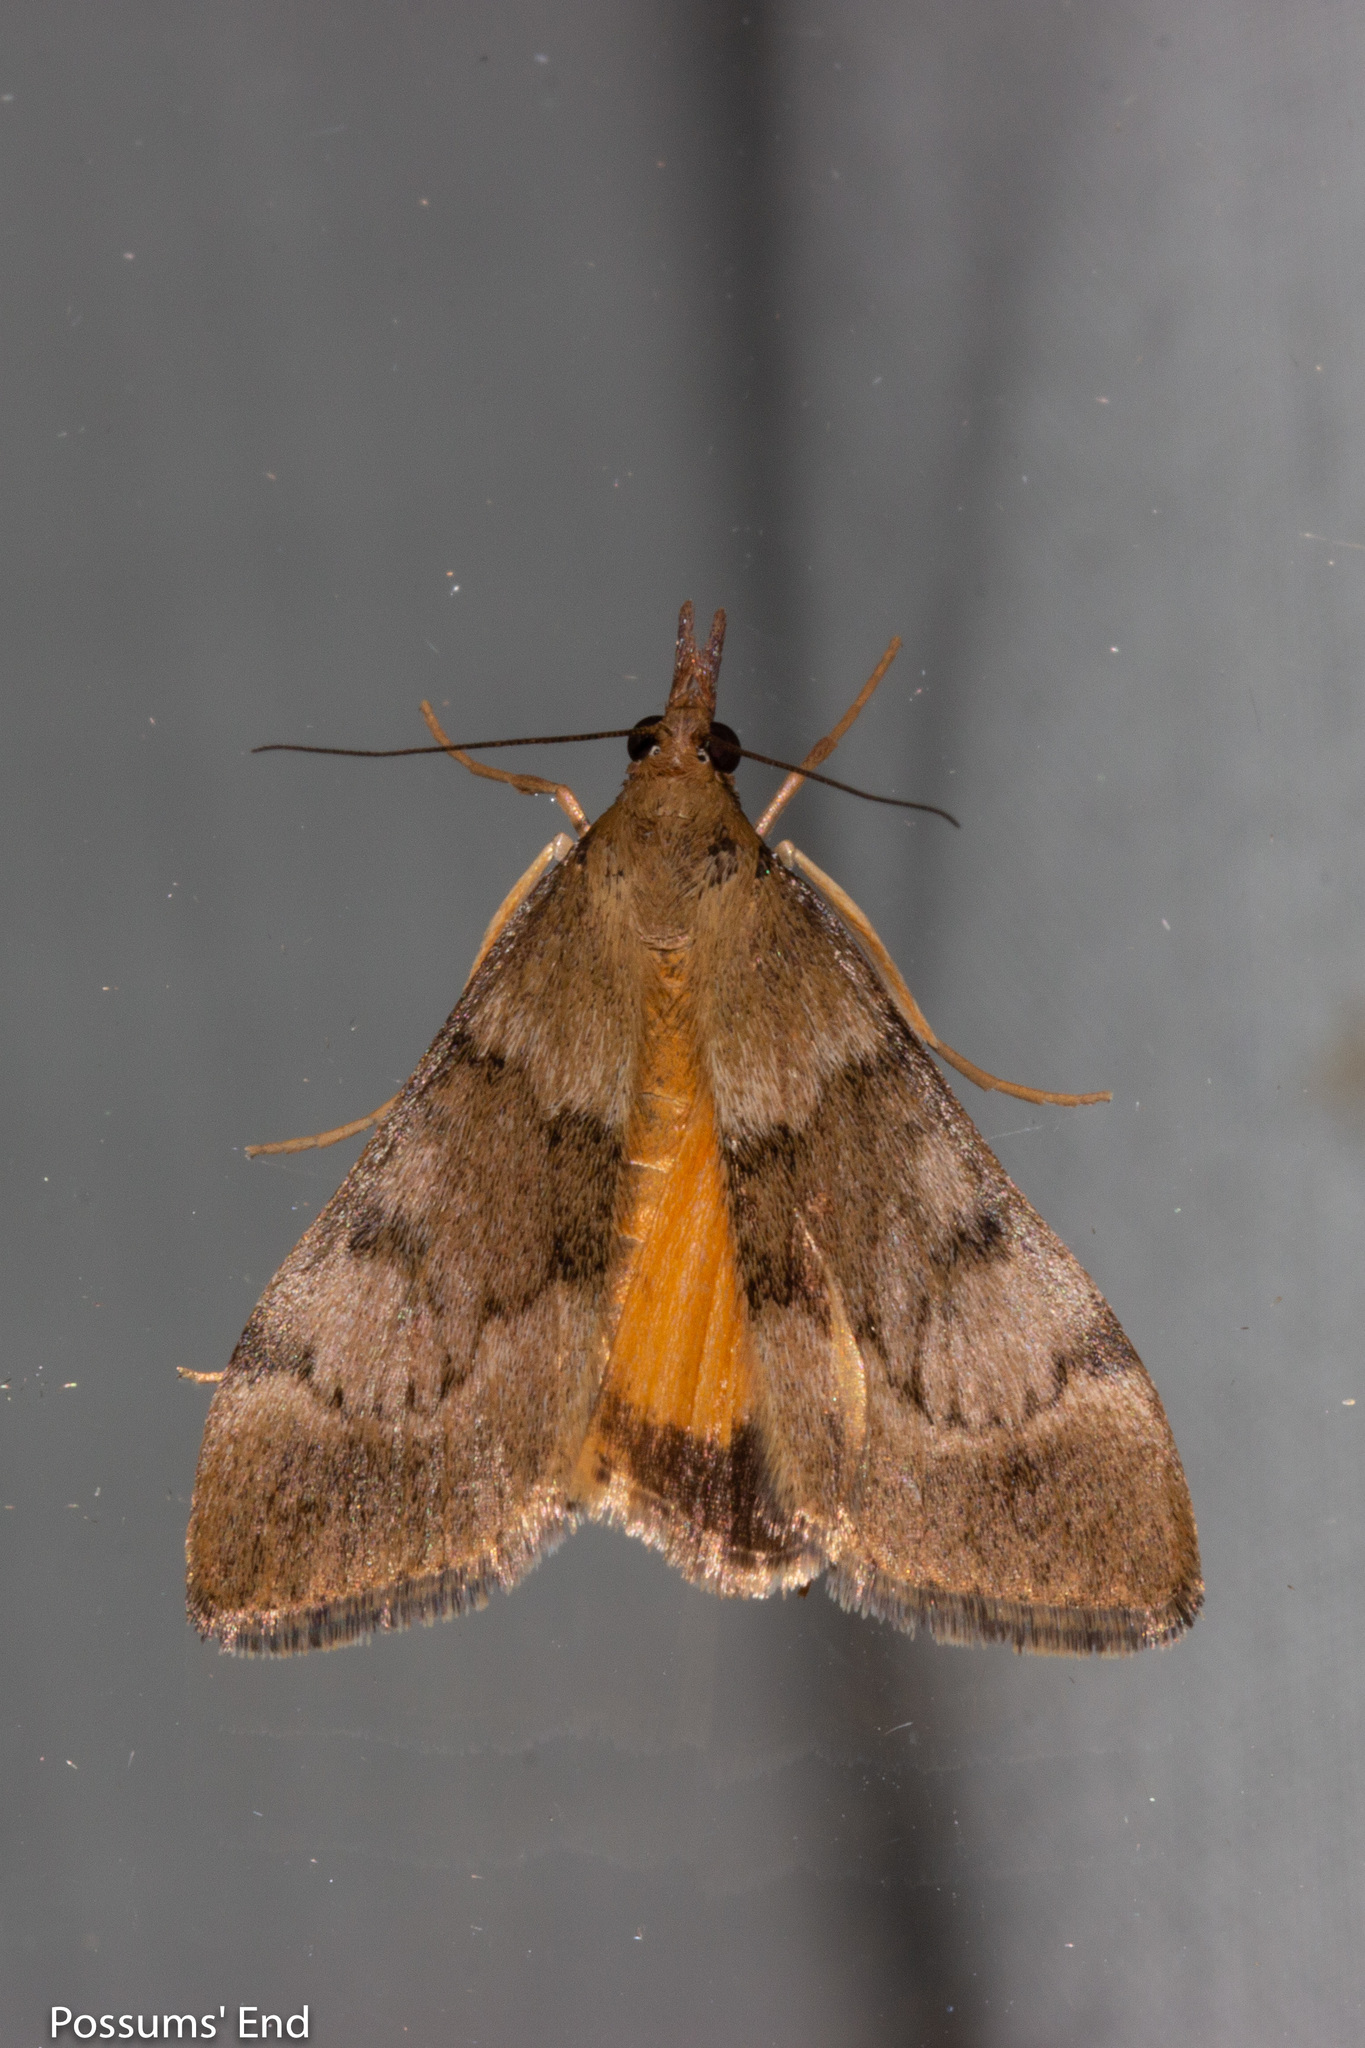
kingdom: Animalia
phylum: Arthropoda
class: Insecta
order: Lepidoptera
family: Crambidae
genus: Uresiphita
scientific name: Uresiphita
